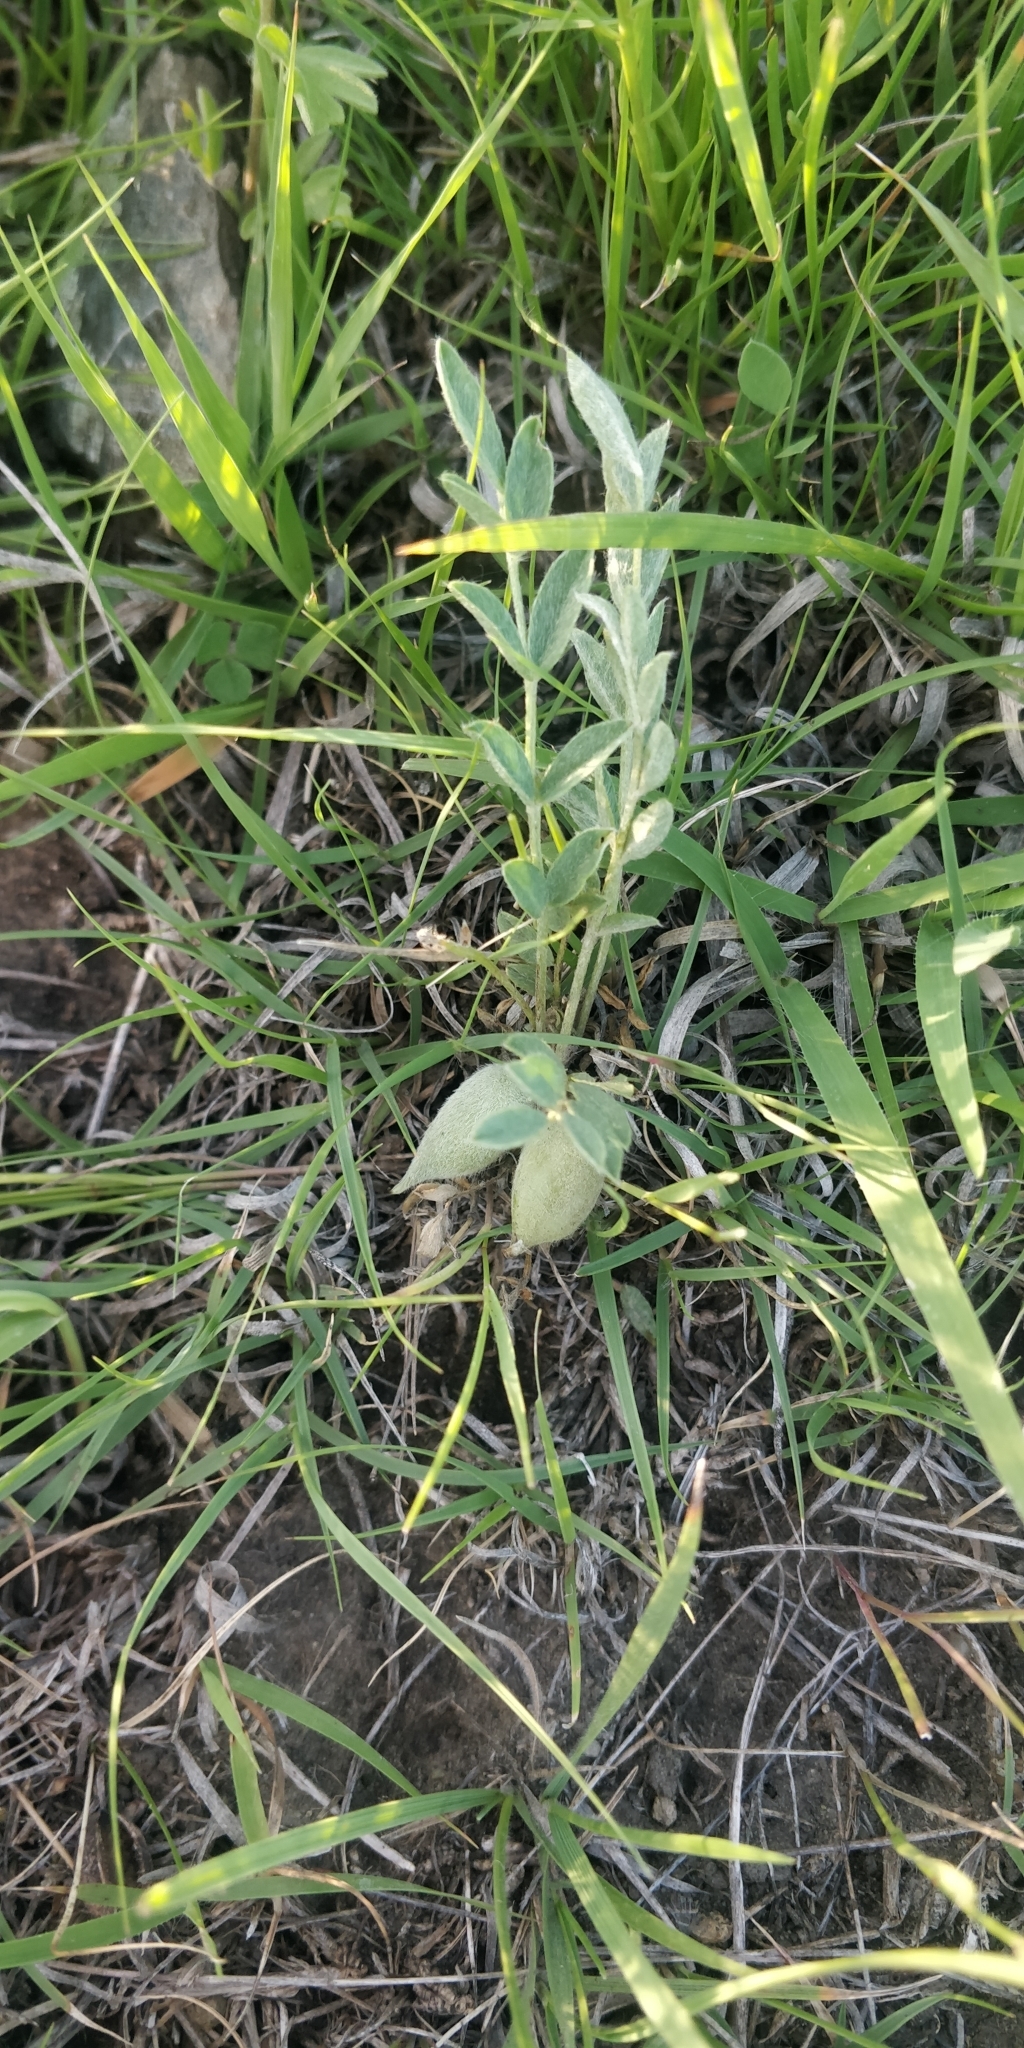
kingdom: Plantae
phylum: Tracheophyta
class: Magnoliopsida
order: Fabales
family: Fabaceae
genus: Astragalus
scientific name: Astragalus lotiflorus
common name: Lotus milk-vetch
